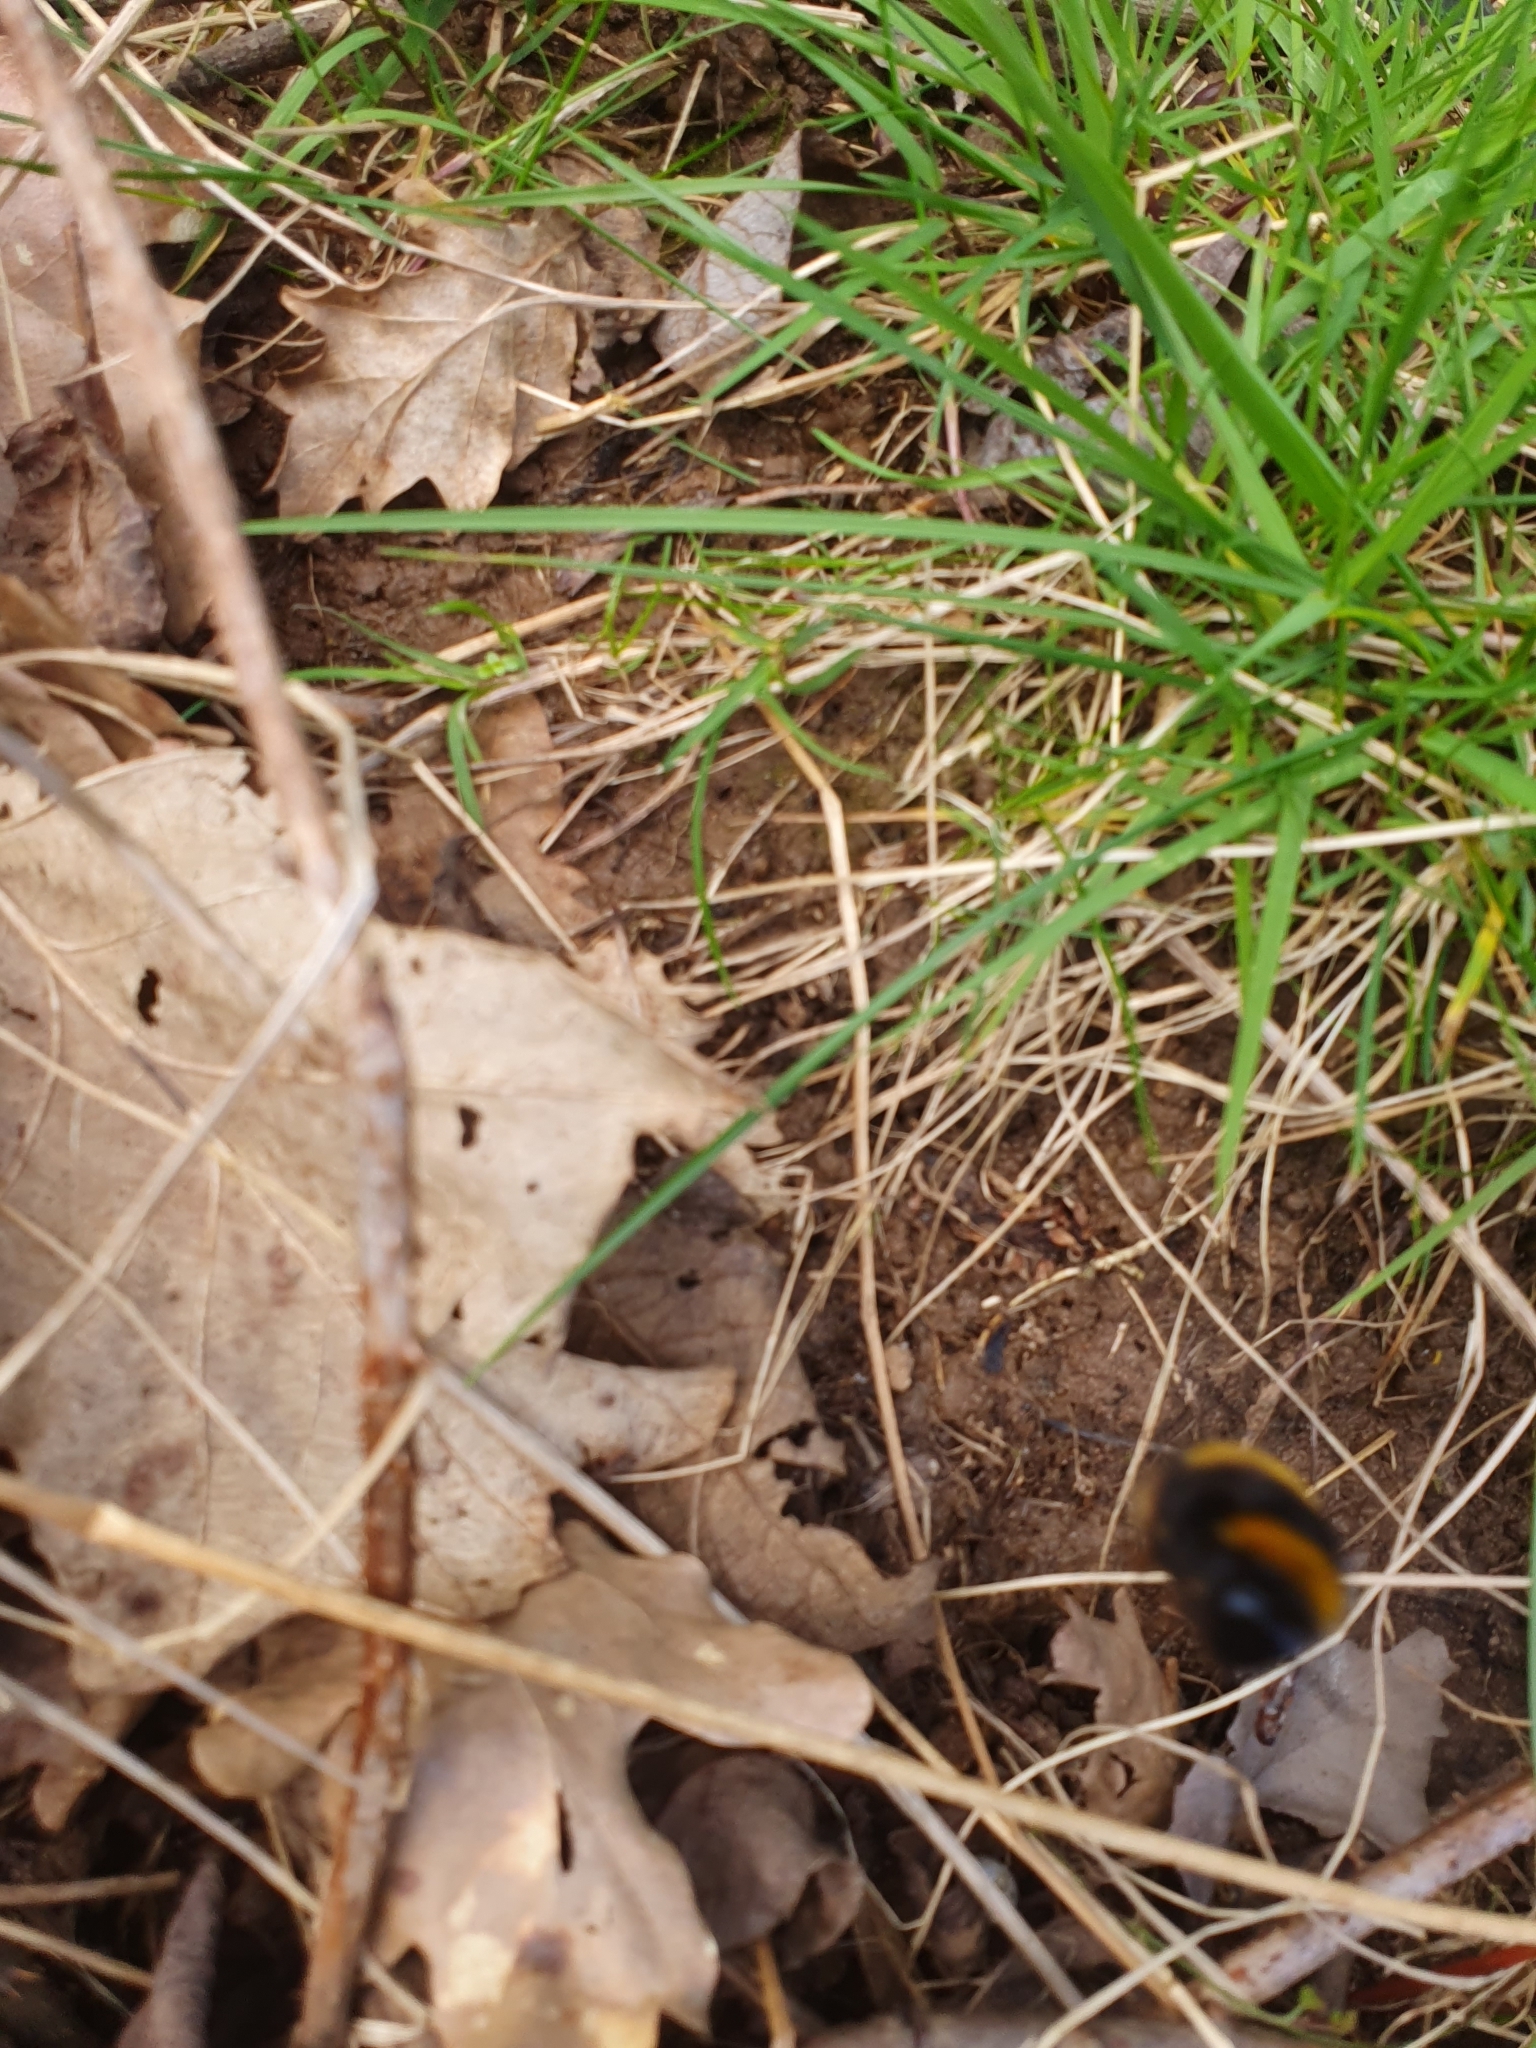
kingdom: Animalia
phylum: Arthropoda
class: Insecta
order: Hymenoptera
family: Apidae
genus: Bombus
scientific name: Bombus terrestris
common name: Buff-tailed bumblebee
